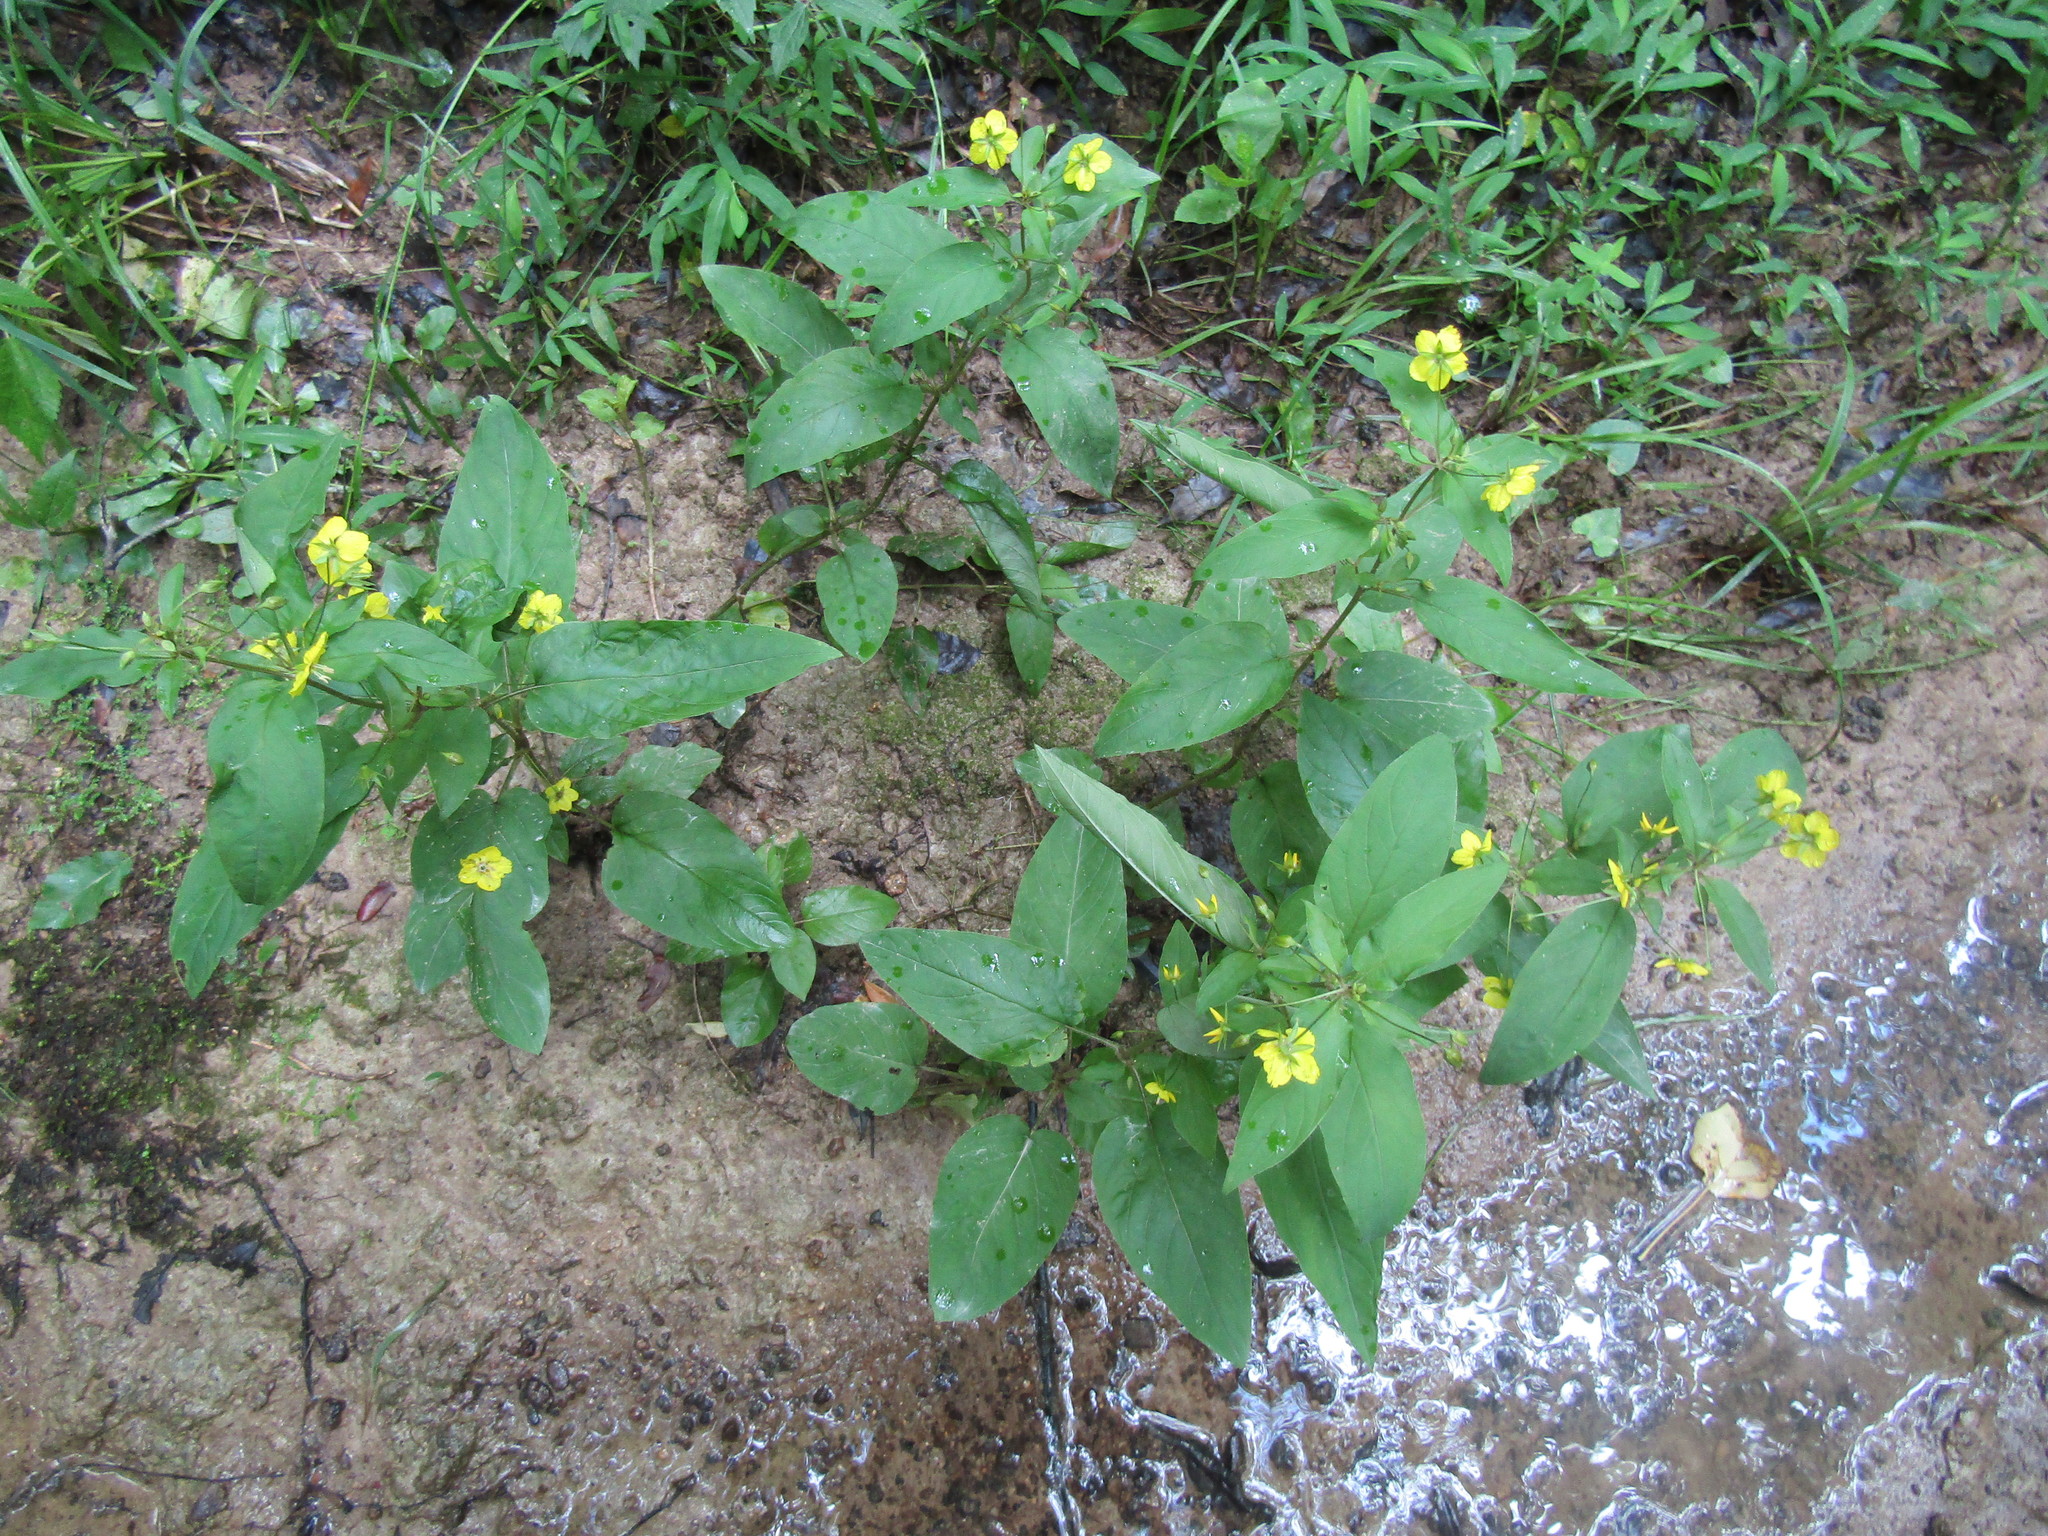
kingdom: Plantae
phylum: Tracheophyta
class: Magnoliopsida
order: Ericales
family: Primulaceae
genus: Lysimachia
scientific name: Lysimachia ciliata
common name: Fringed loosestrife
